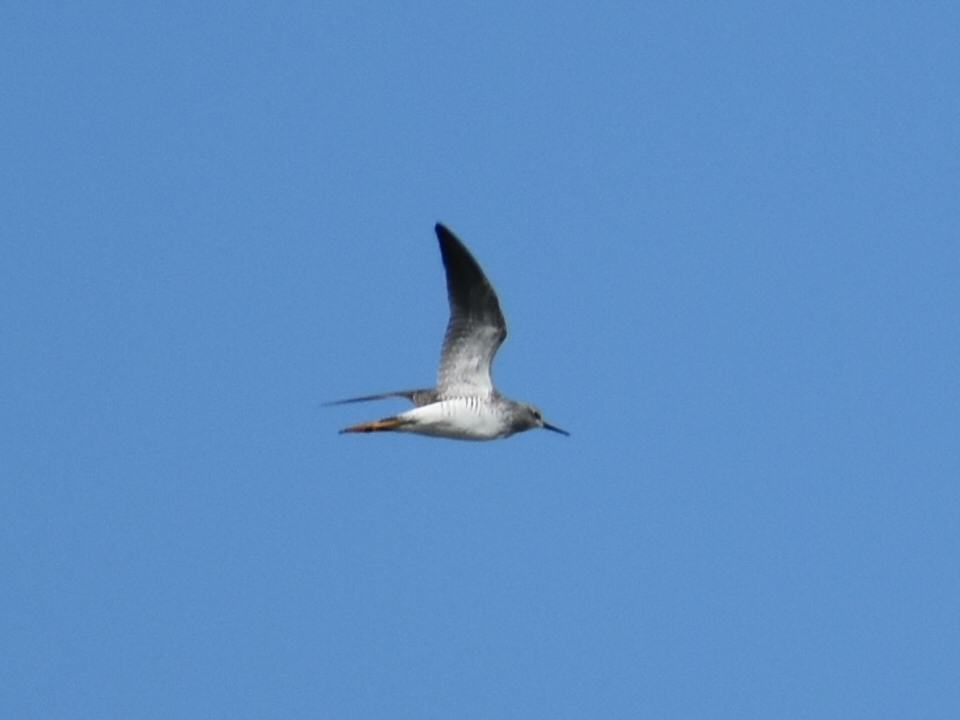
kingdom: Animalia
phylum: Chordata
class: Aves
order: Charadriiformes
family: Scolopacidae
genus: Tringa
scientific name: Tringa flavipes
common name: Lesser yellowlegs
